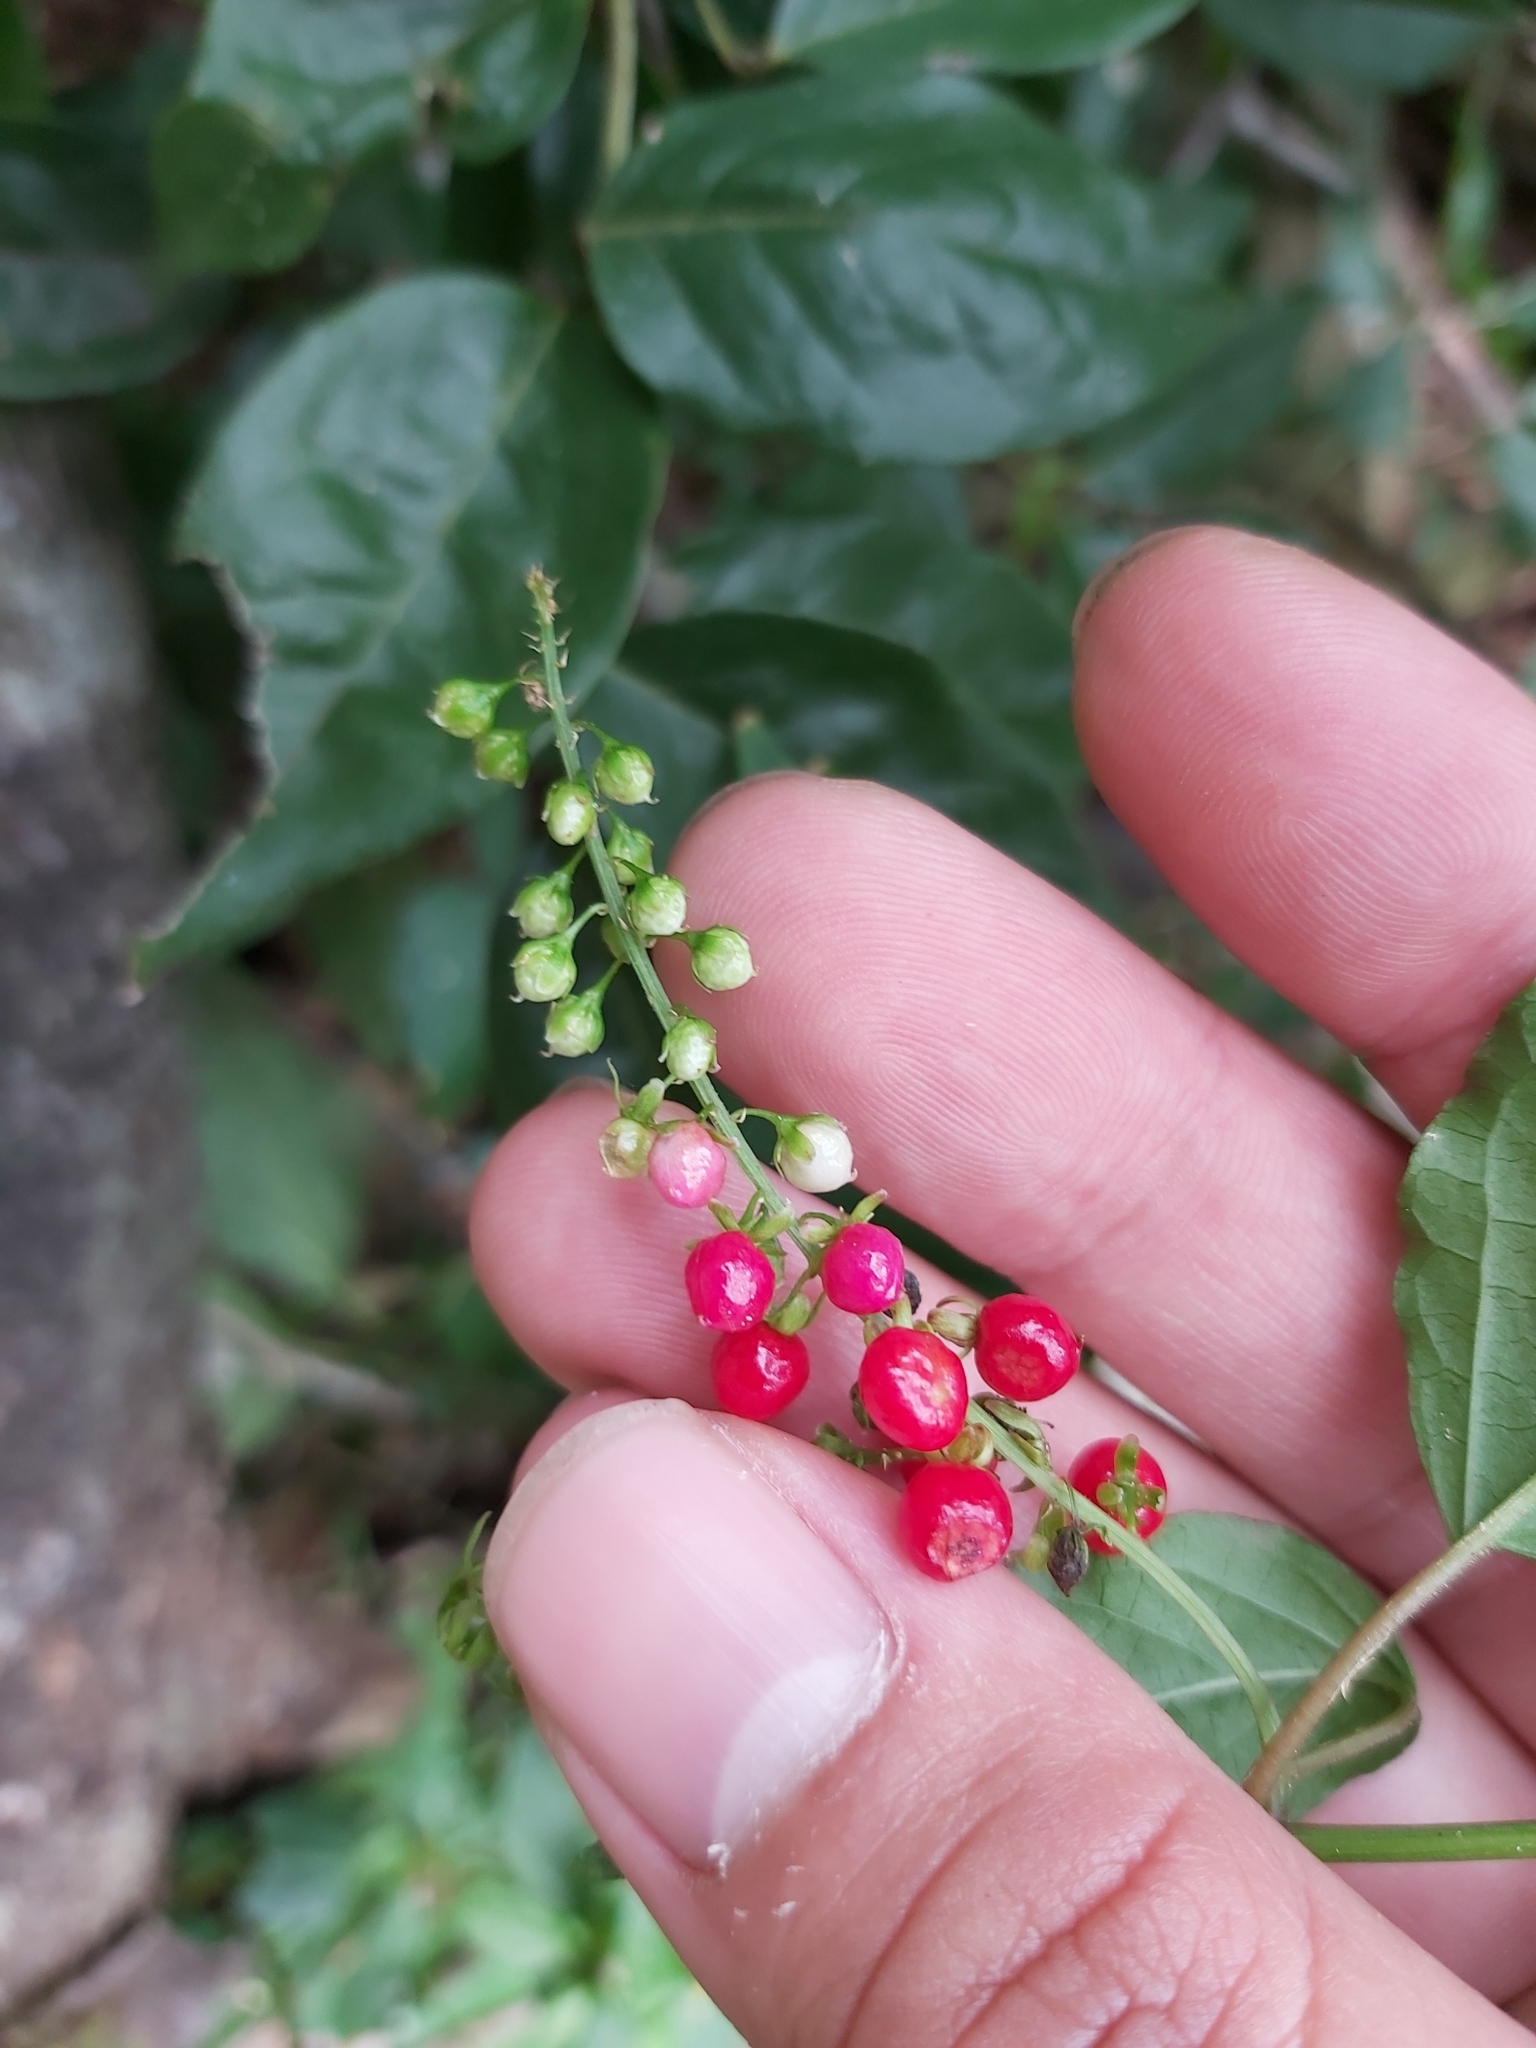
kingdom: Plantae
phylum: Tracheophyta
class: Magnoliopsida
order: Caryophyllales
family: Phytolaccaceae
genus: Rivina
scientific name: Rivina humilis
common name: Rougeplant
